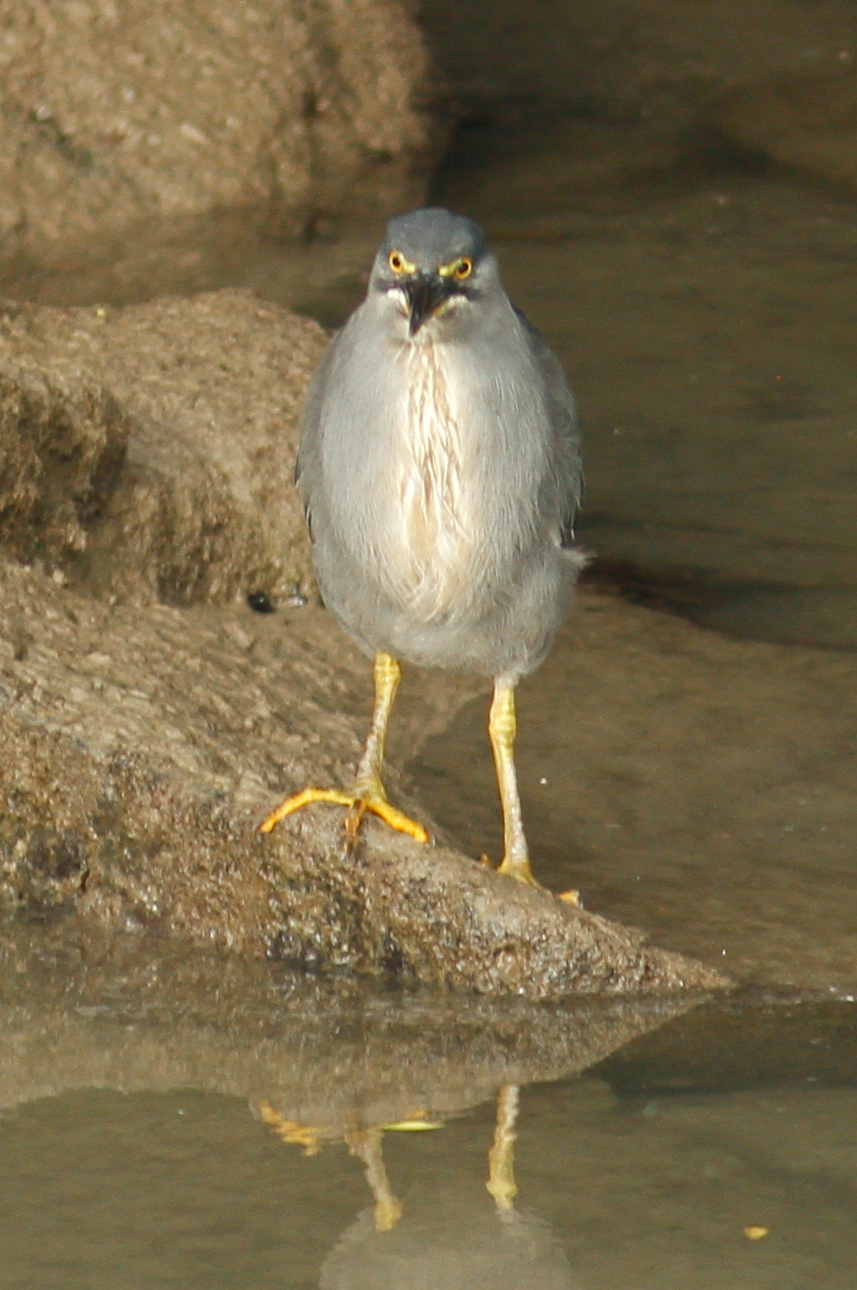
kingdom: Animalia
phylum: Chordata
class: Aves
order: Pelecaniformes
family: Ardeidae
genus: Butorides
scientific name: Butorides striata
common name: Striated heron
